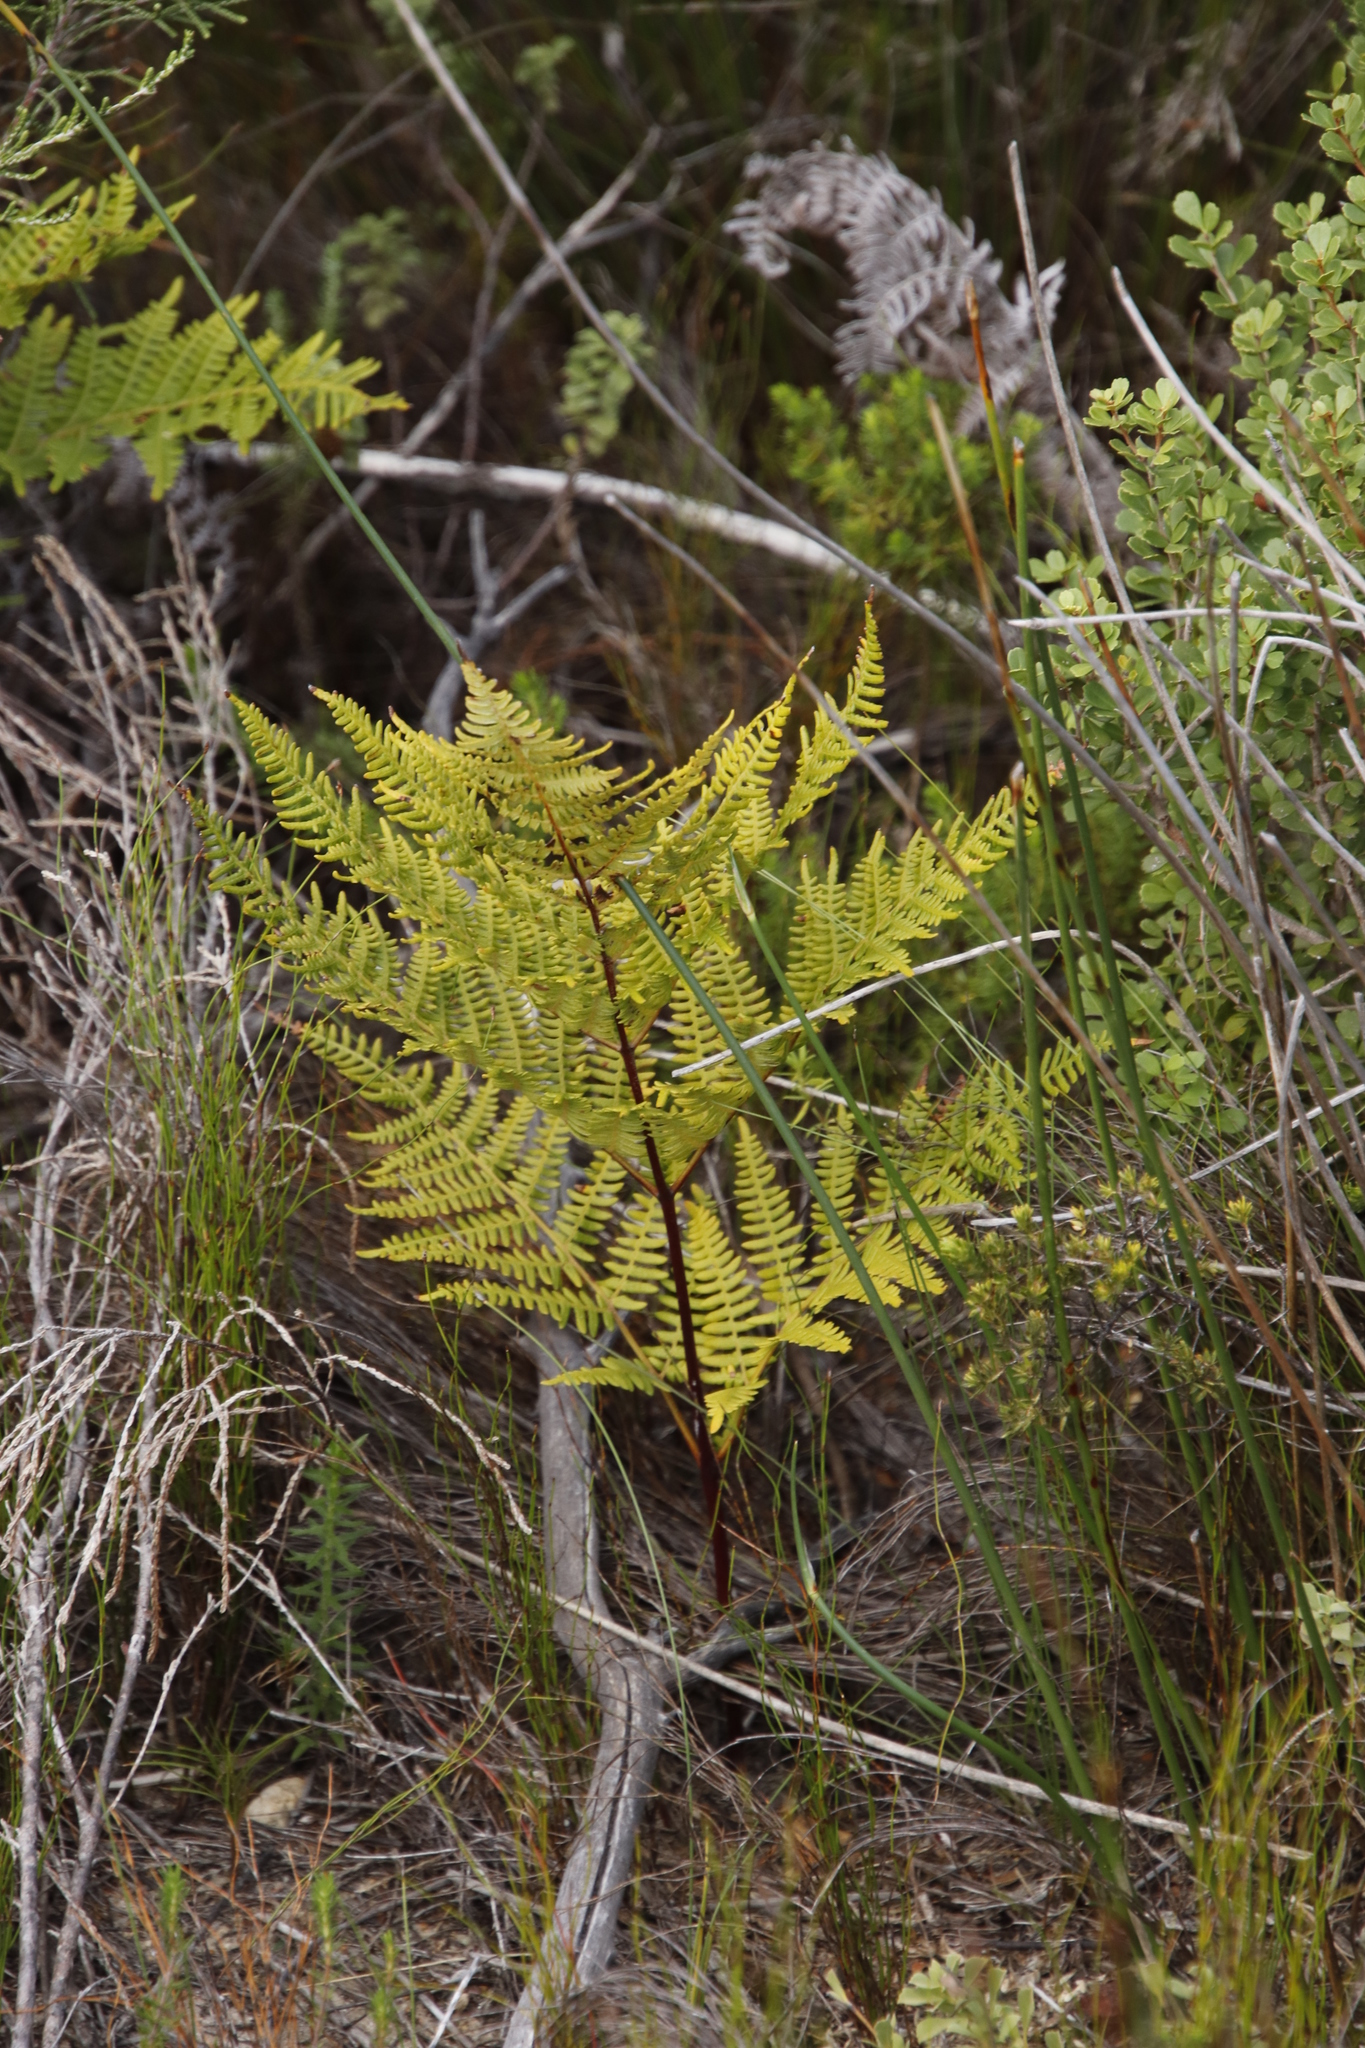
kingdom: Plantae
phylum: Tracheophyta
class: Polypodiopsida
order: Polypodiales
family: Dennstaedtiaceae
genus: Pteridium
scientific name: Pteridium aquilinum
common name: Bracken
